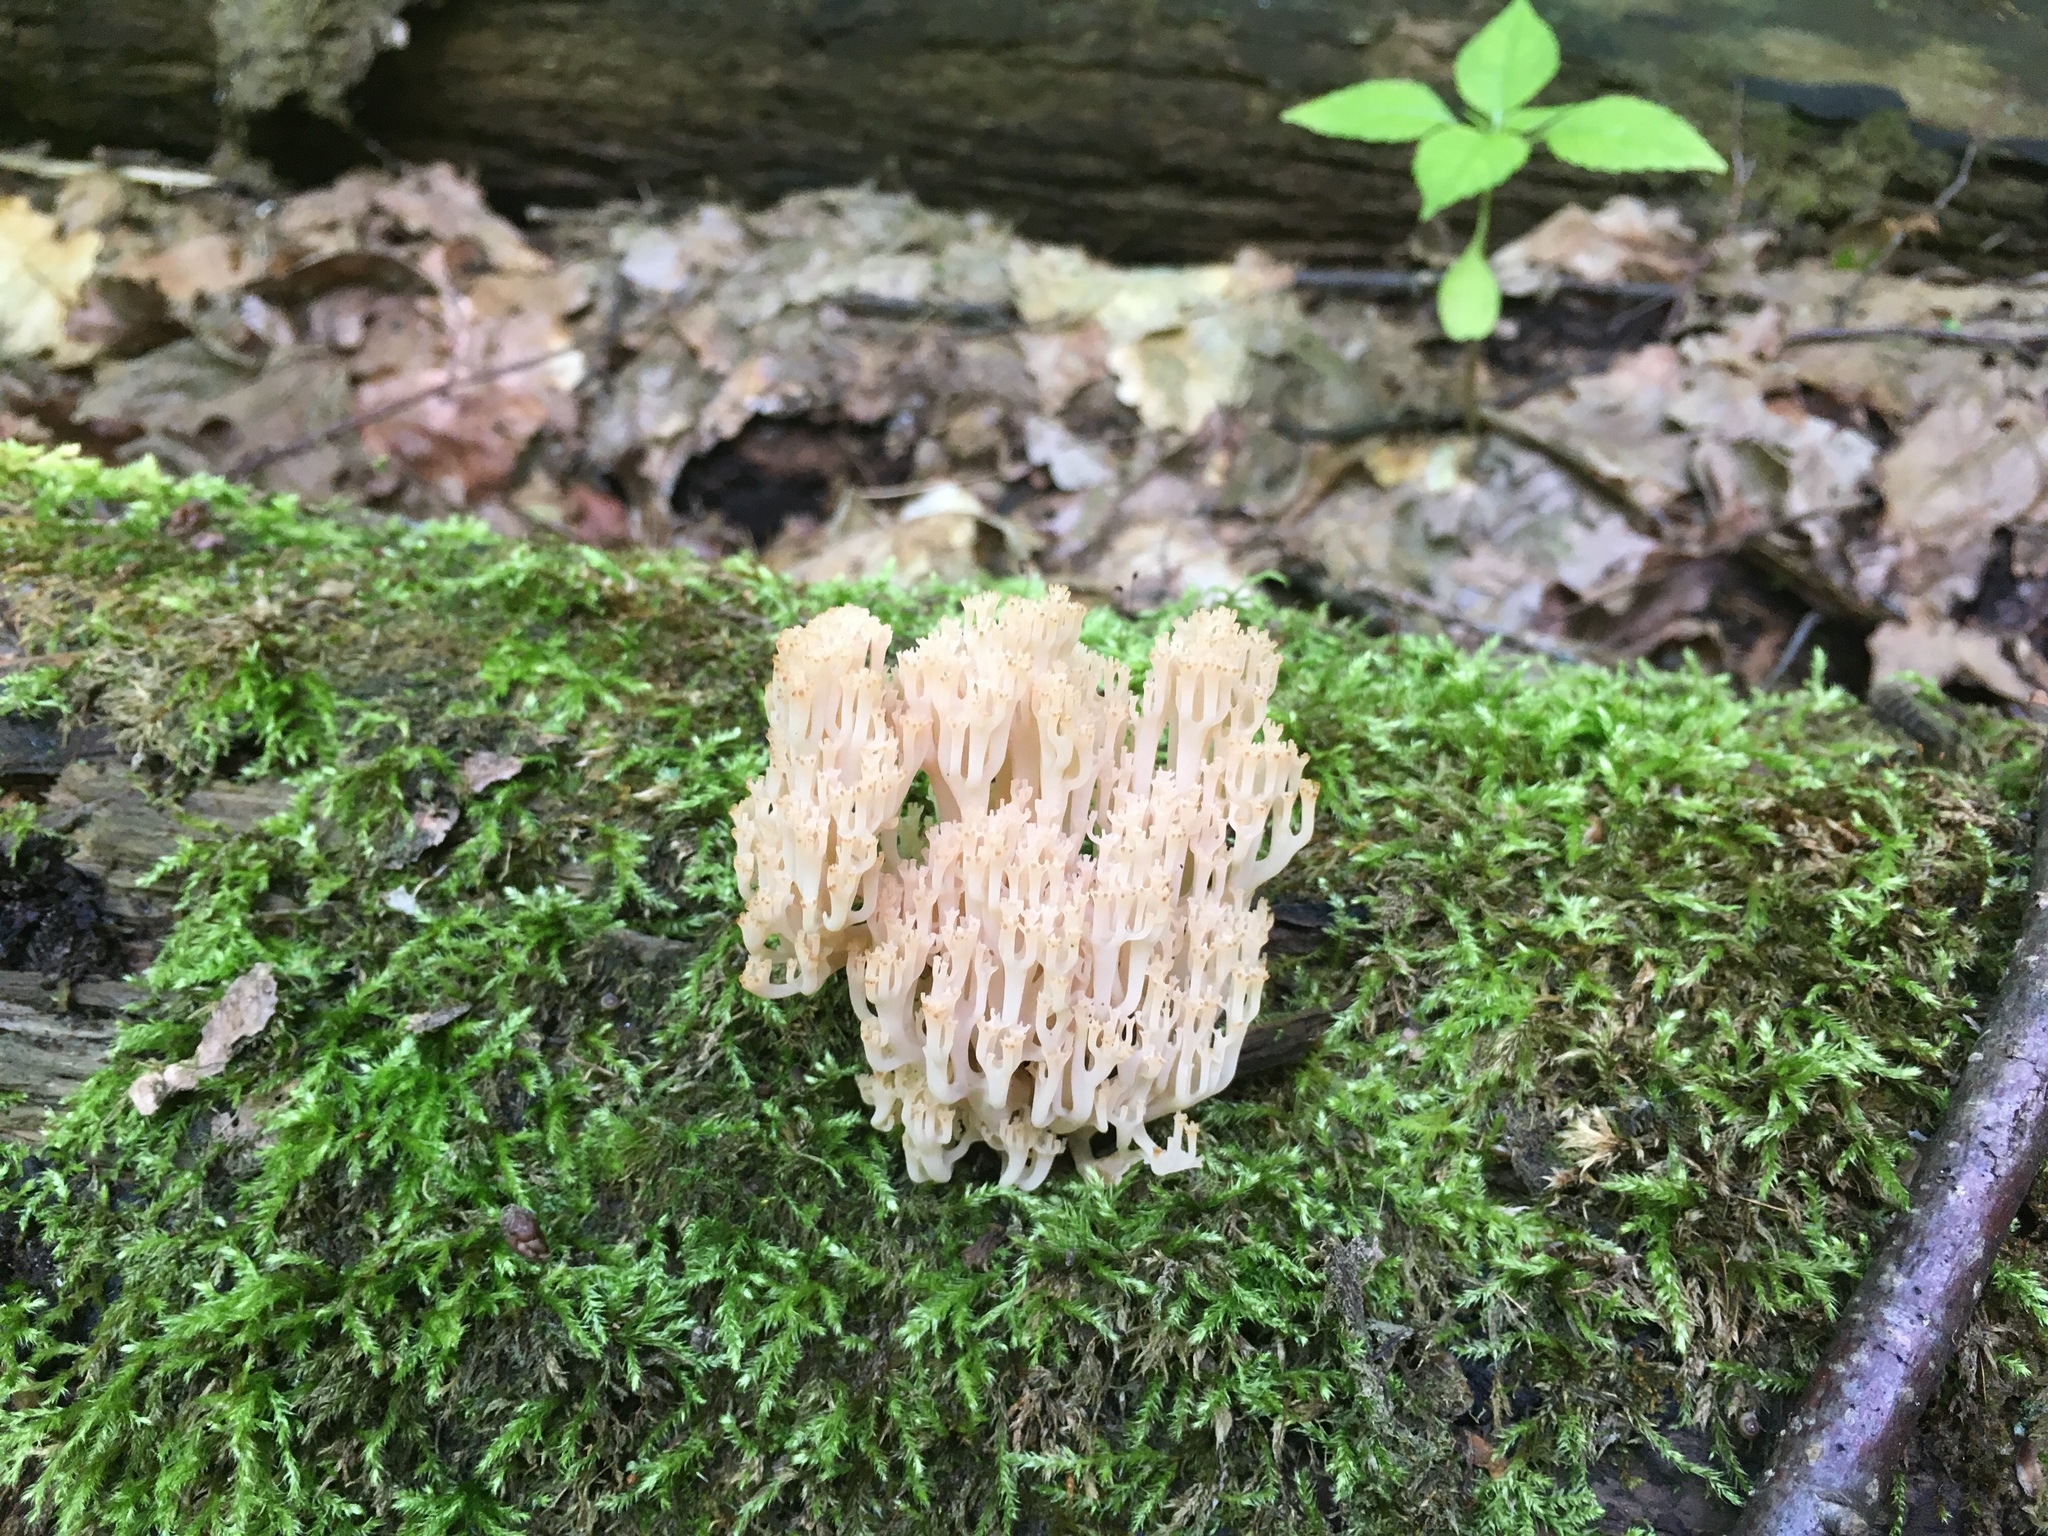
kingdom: Fungi
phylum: Basidiomycota
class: Agaricomycetes
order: Russulales
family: Auriscalpiaceae
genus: Artomyces
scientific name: Artomyces pyxidatus
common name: Crown-tipped coral fungus
